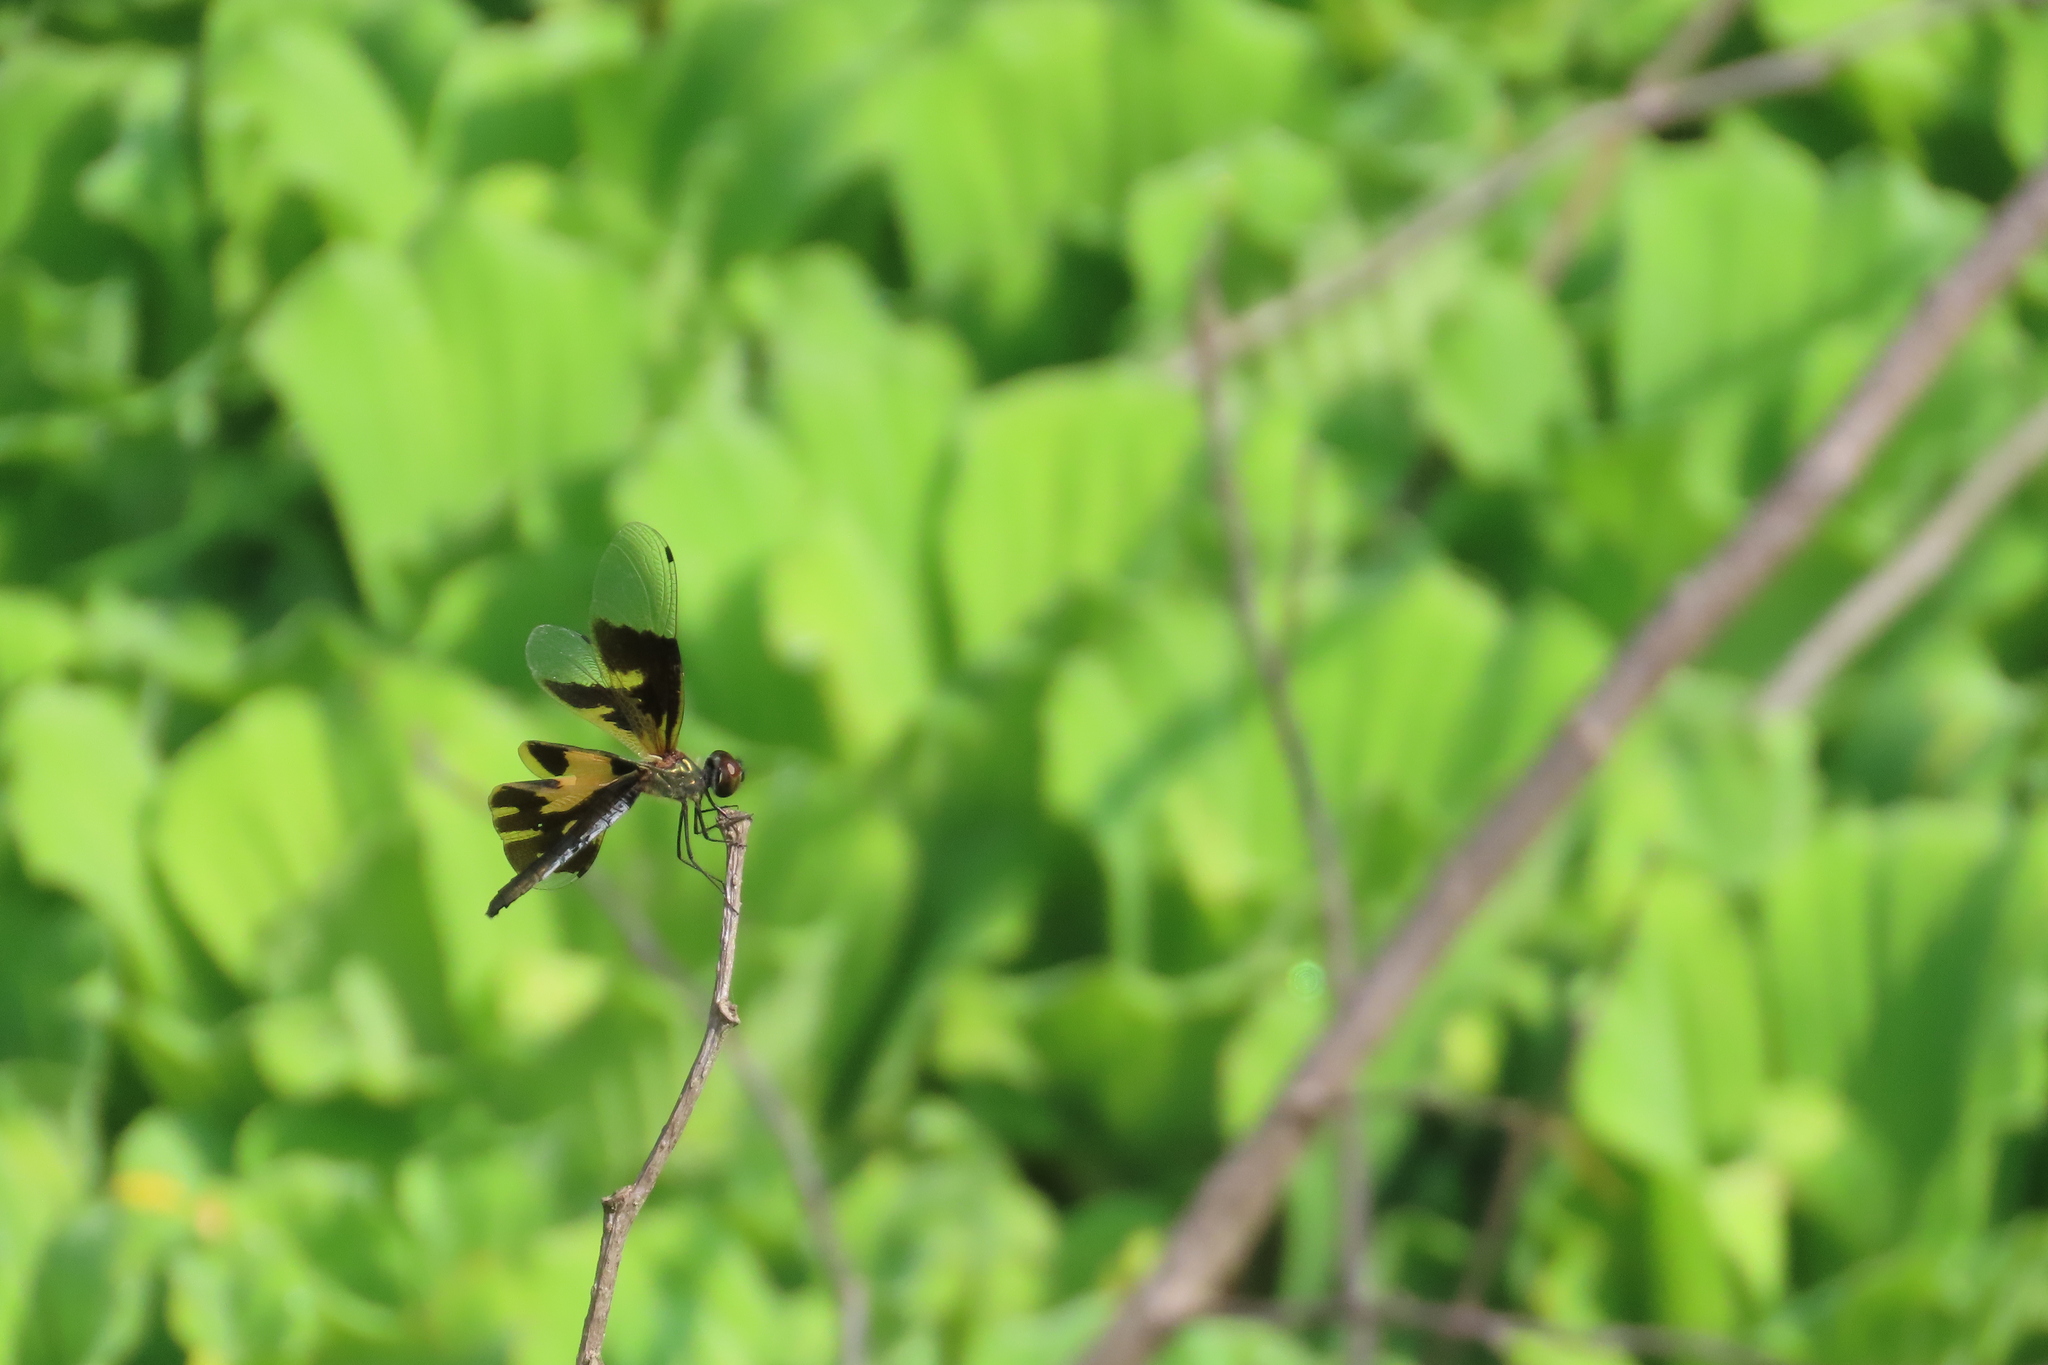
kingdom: Animalia
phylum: Arthropoda
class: Insecta
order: Odonata
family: Libellulidae
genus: Rhyothemis
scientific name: Rhyothemis variegata
